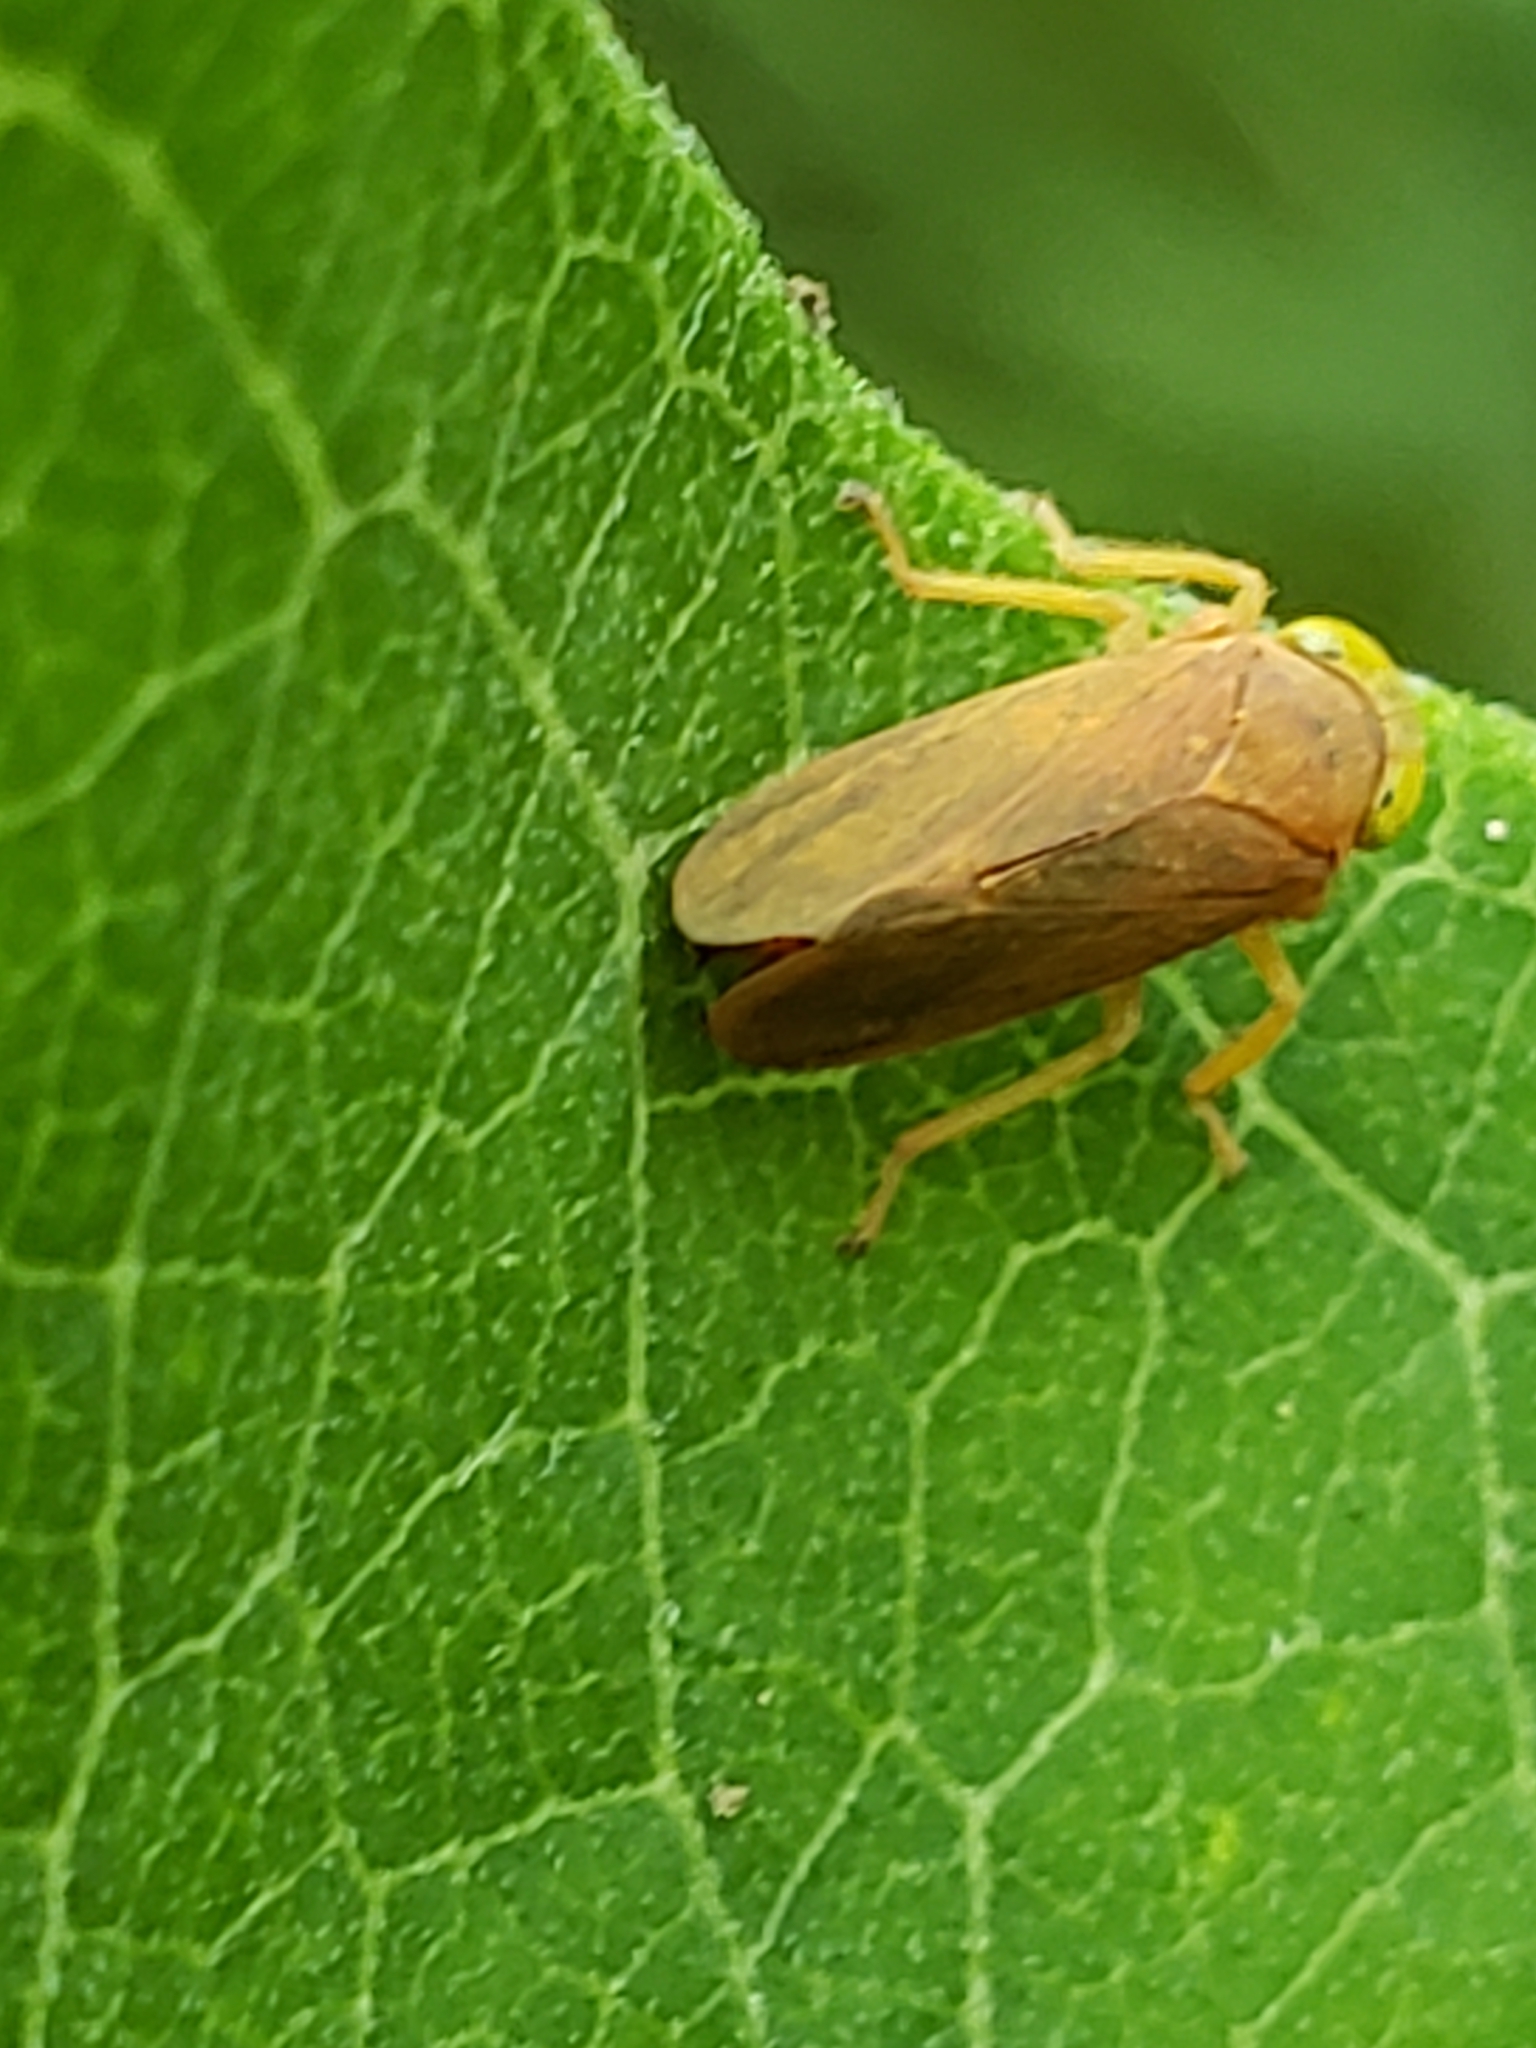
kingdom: Animalia
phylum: Arthropoda
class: Insecta
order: Hemiptera
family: Cicadellidae
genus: Jikradia
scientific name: Jikradia olitoria
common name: Coppery leafhopper
